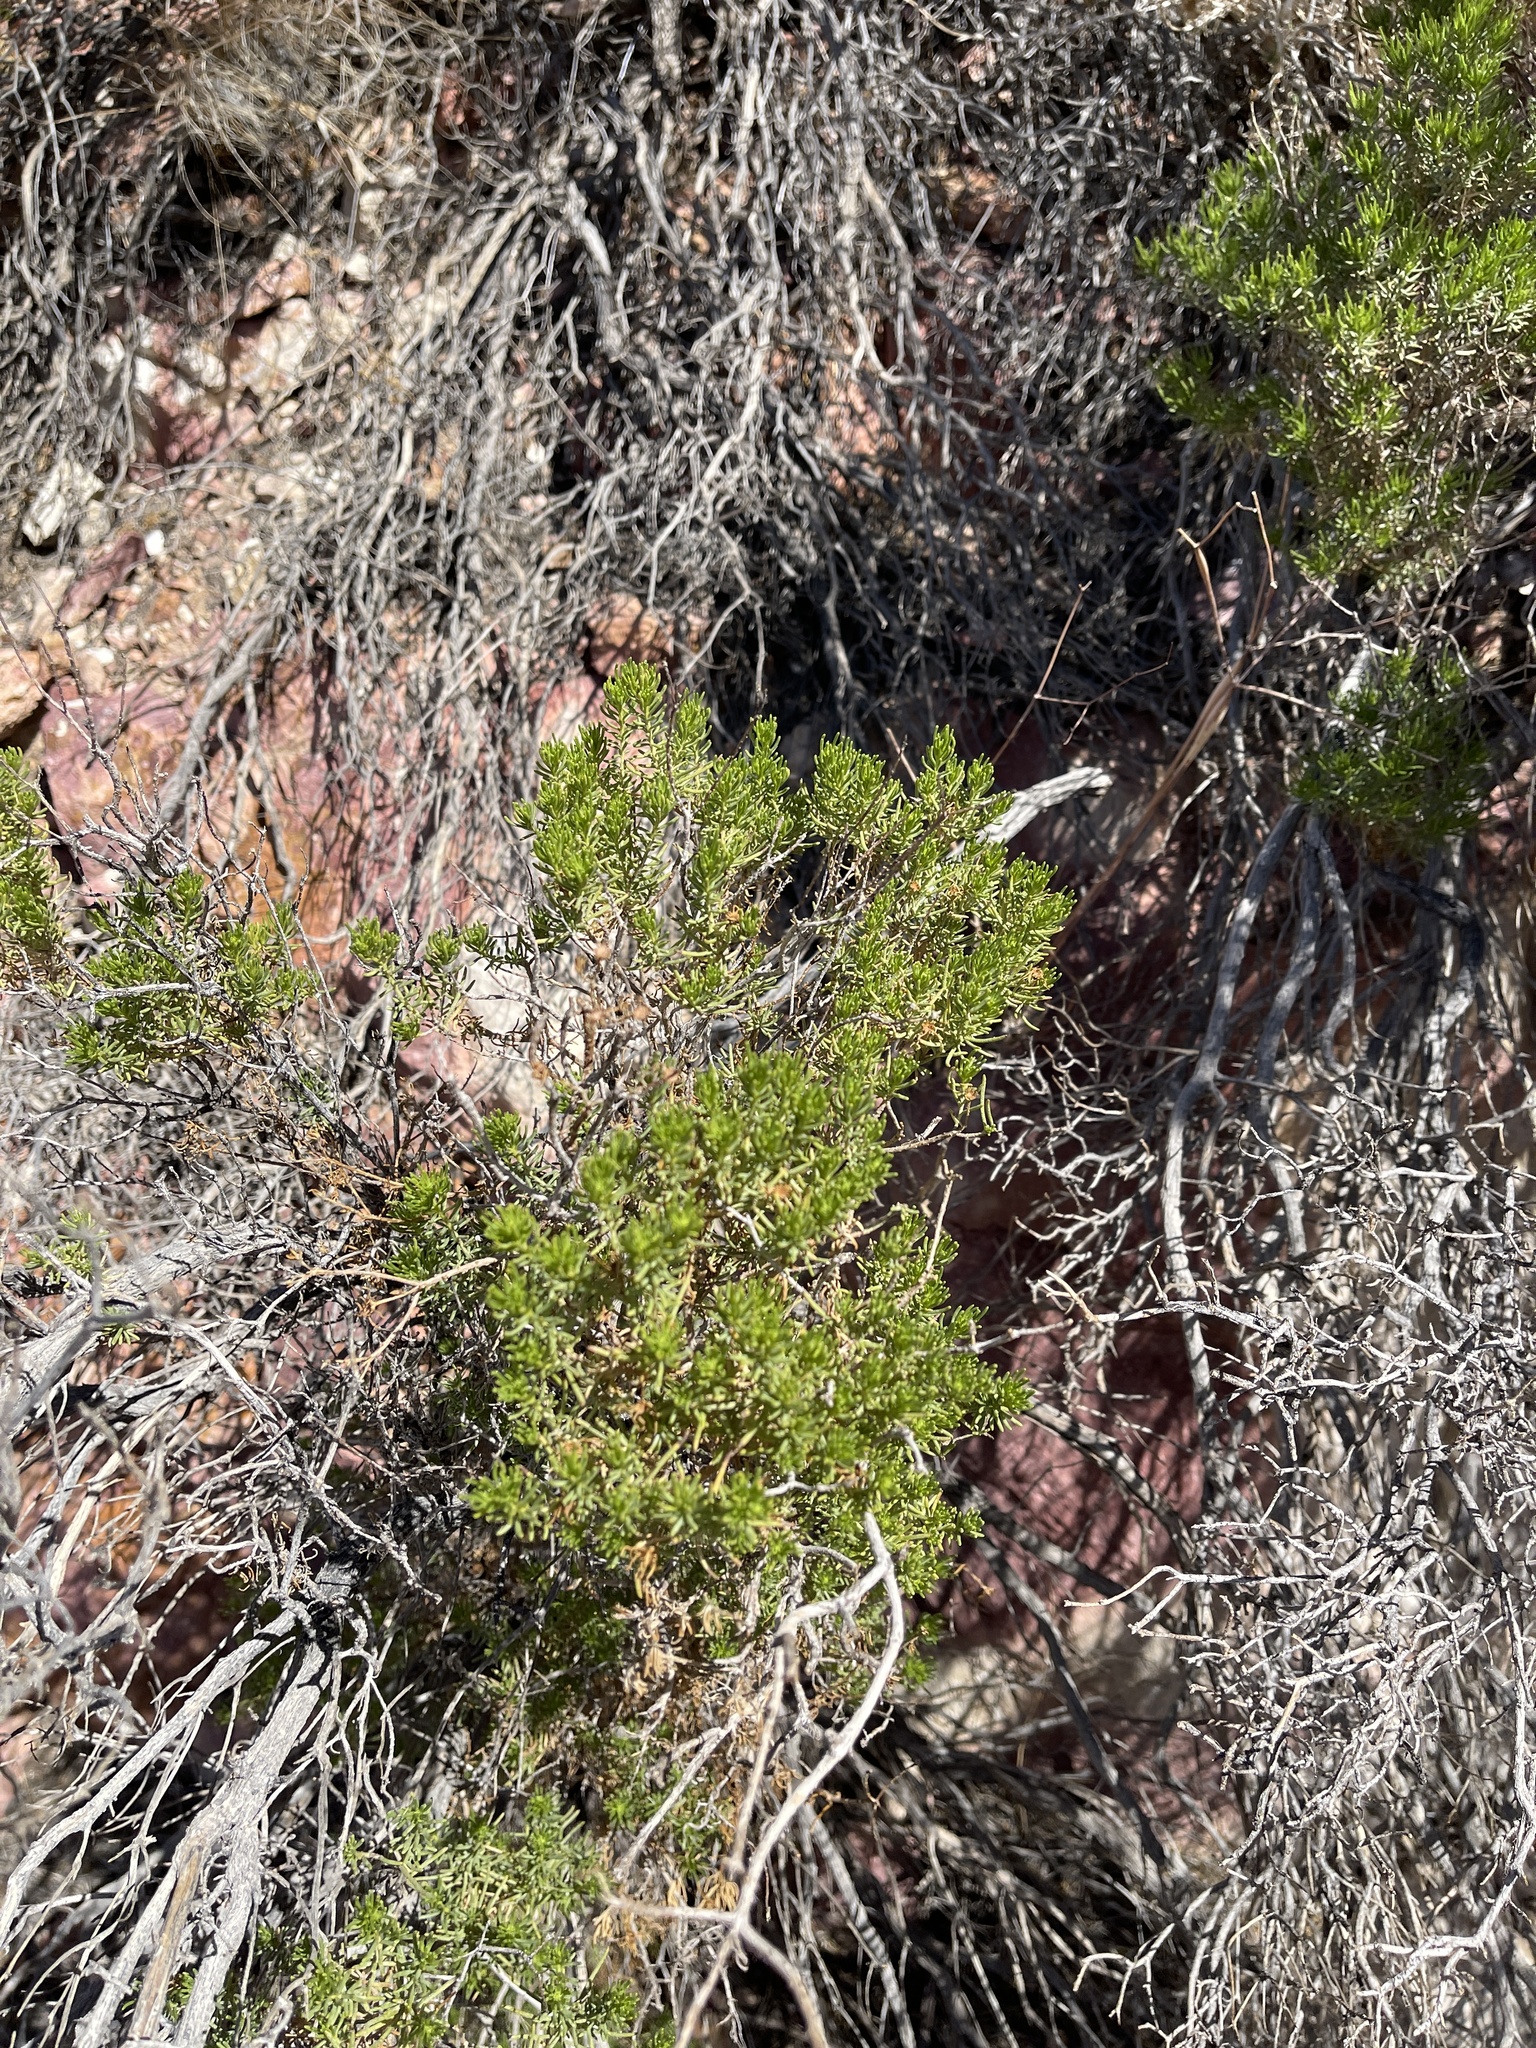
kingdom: Plantae
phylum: Tracheophyta
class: Magnoliopsida
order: Asterales
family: Asteraceae
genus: Peucephyllum
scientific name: Peucephyllum schottii
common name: Pygmy-cedar
